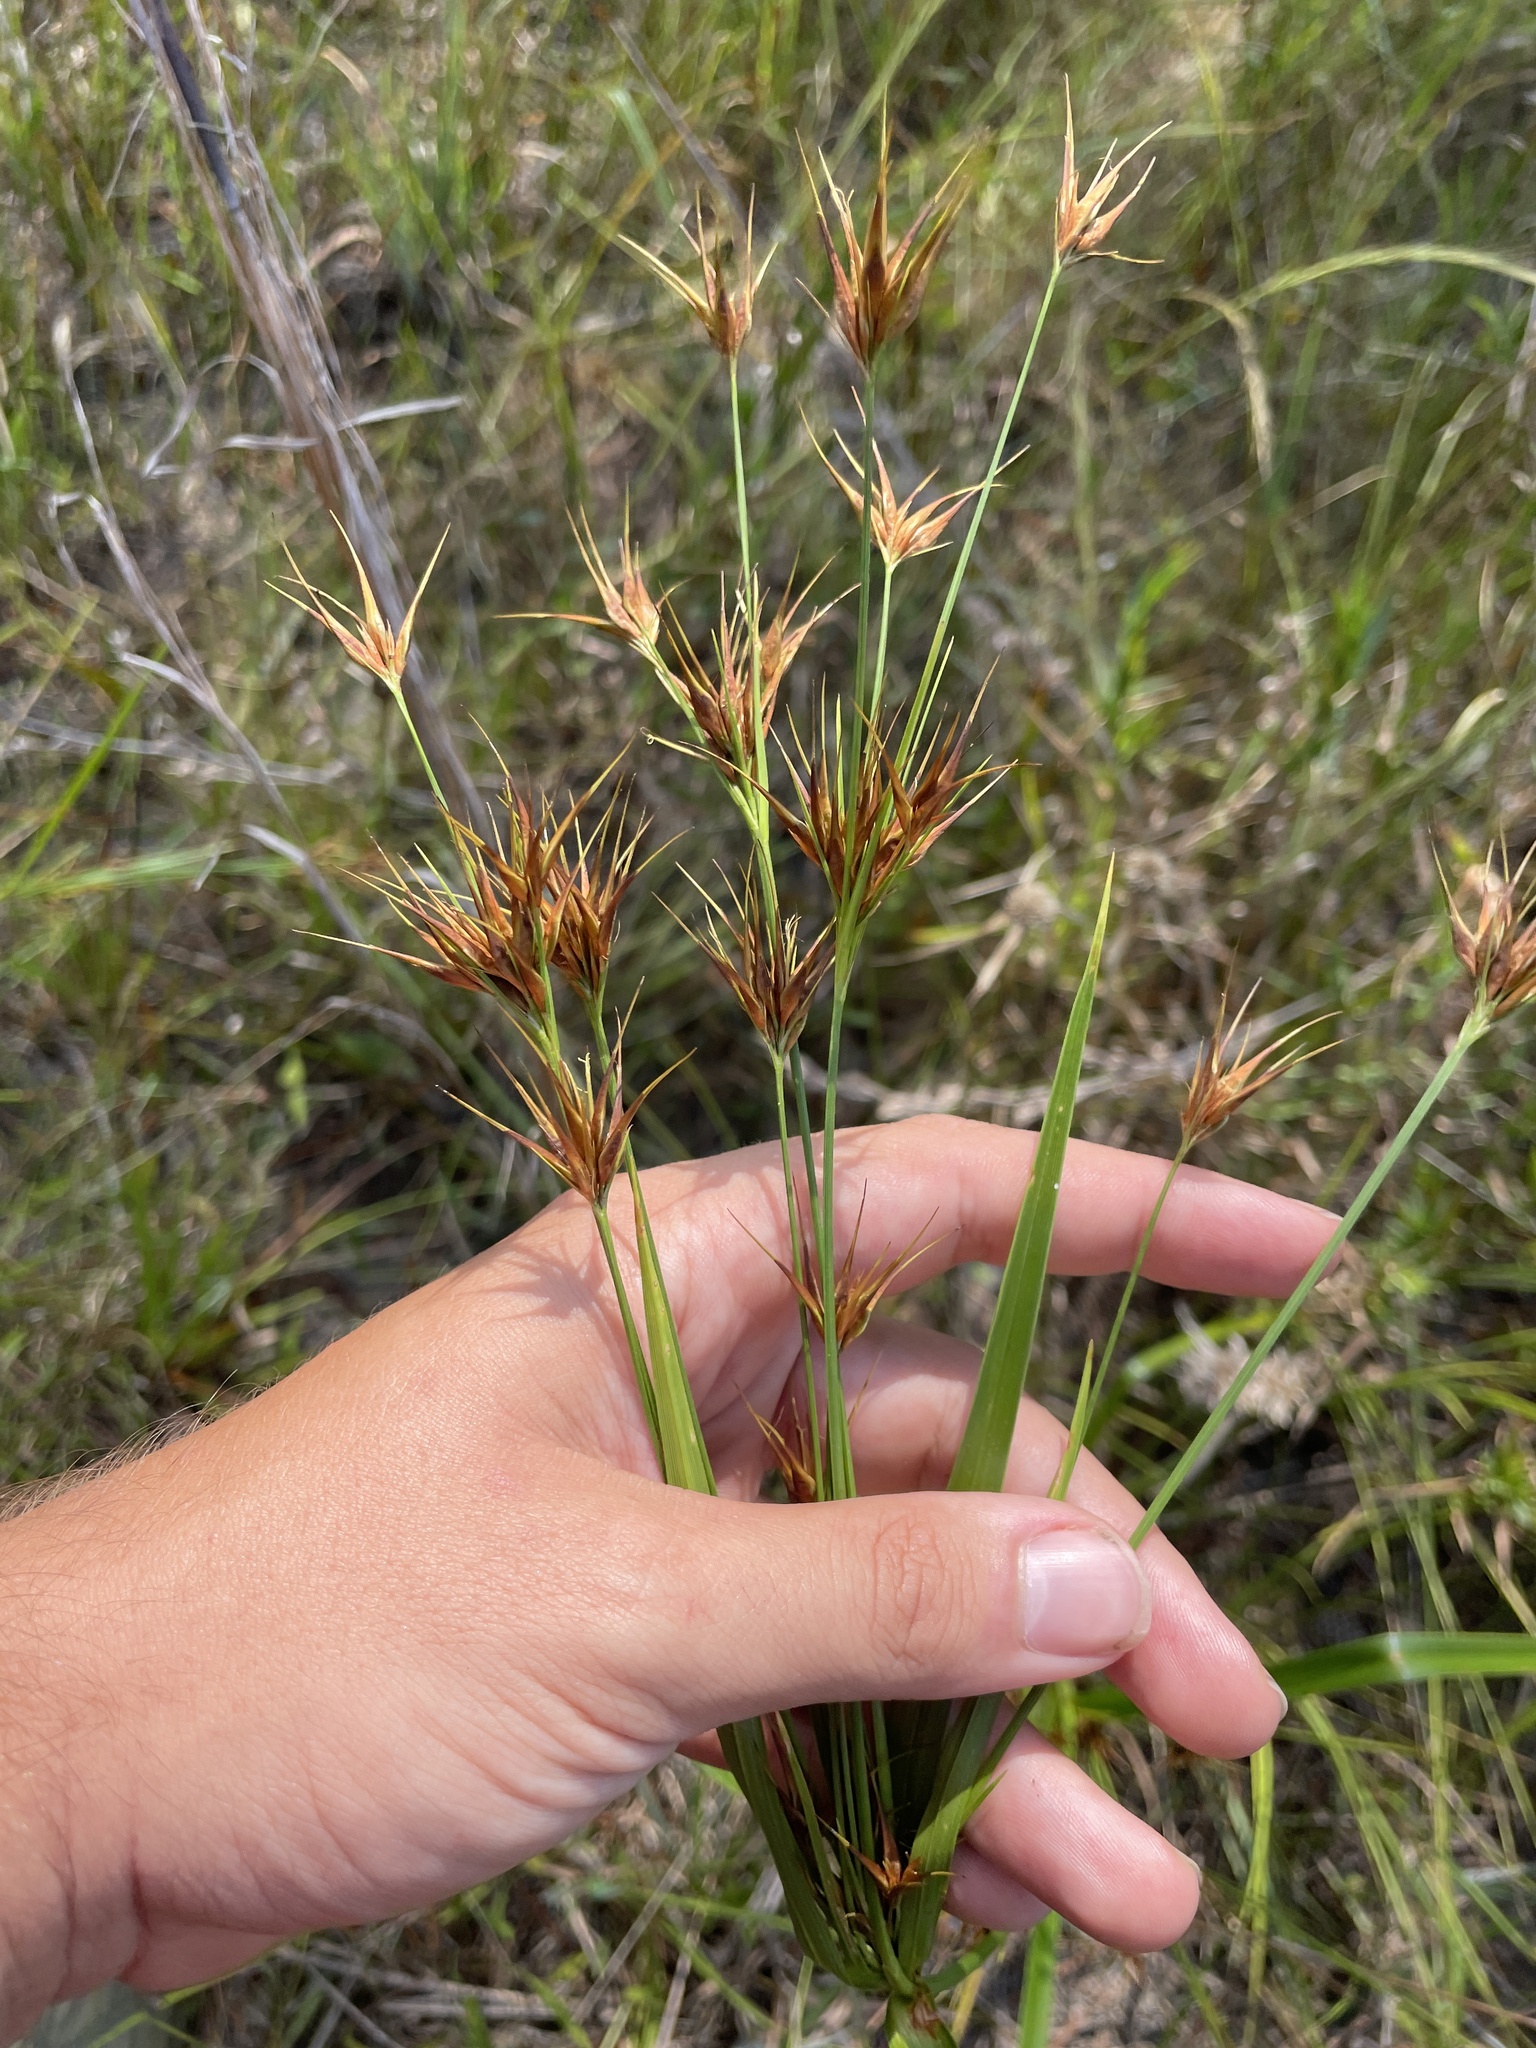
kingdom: Plantae
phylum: Tracheophyta
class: Liliopsida
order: Poales
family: Cyperaceae
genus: Rhynchospora
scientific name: Rhynchospora macrostachya
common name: Tall beakrush
